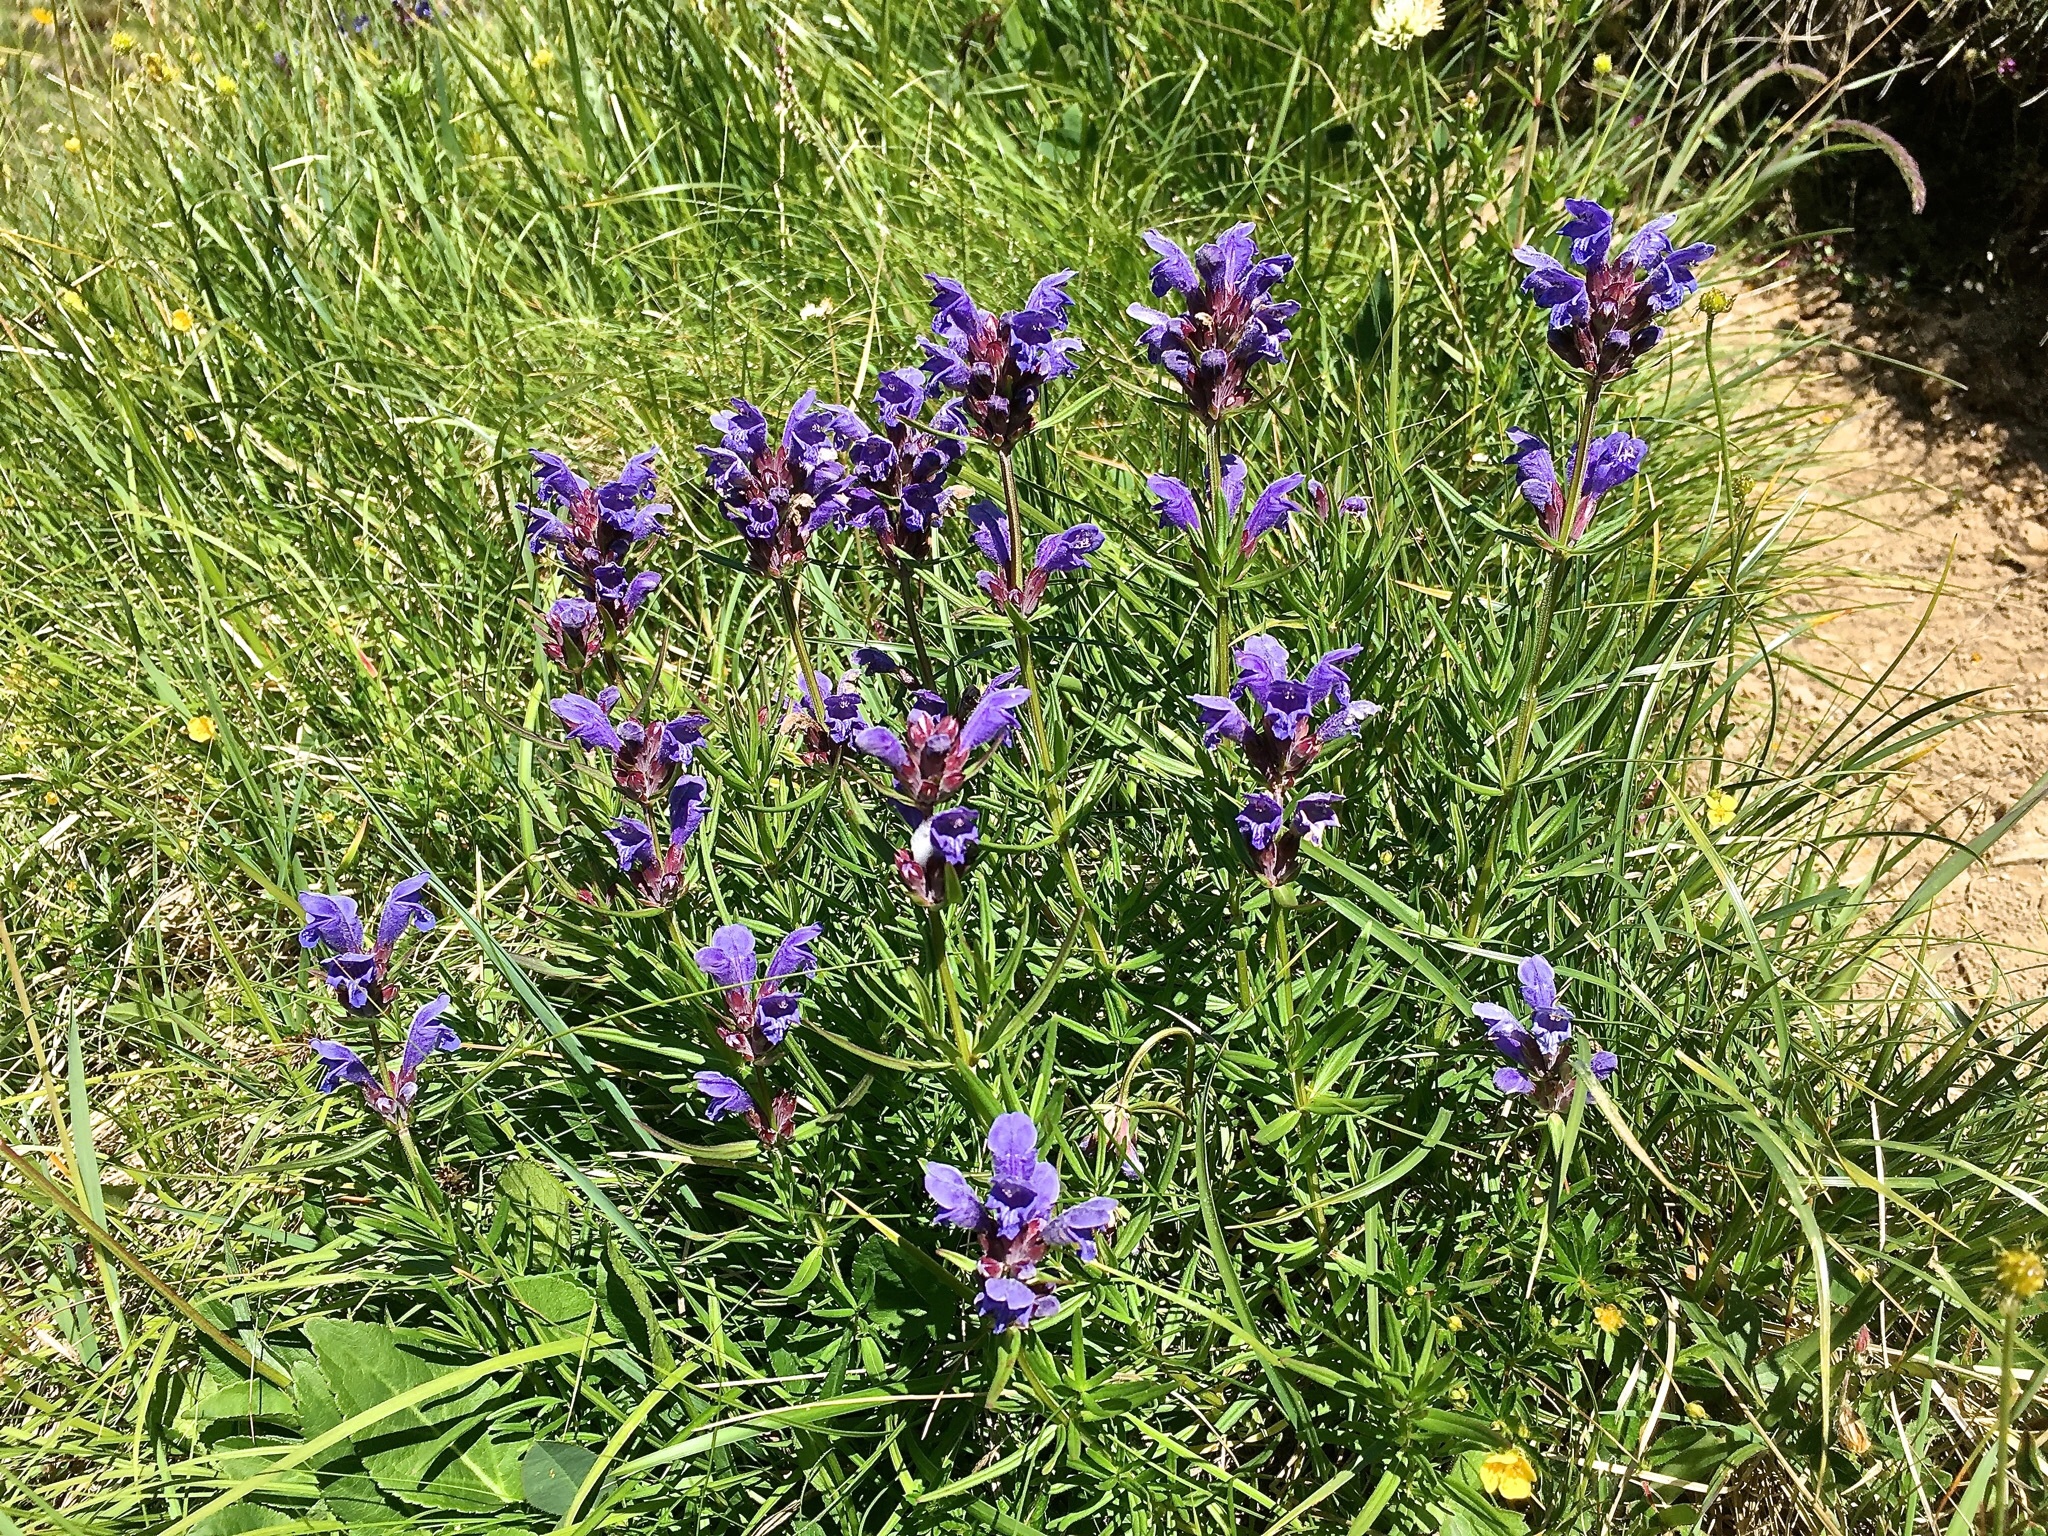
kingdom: Plantae
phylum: Tracheophyta
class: Magnoliopsida
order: Lamiales
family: Lamiaceae
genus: Dracocephalum
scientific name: Dracocephalum ruyschiana
